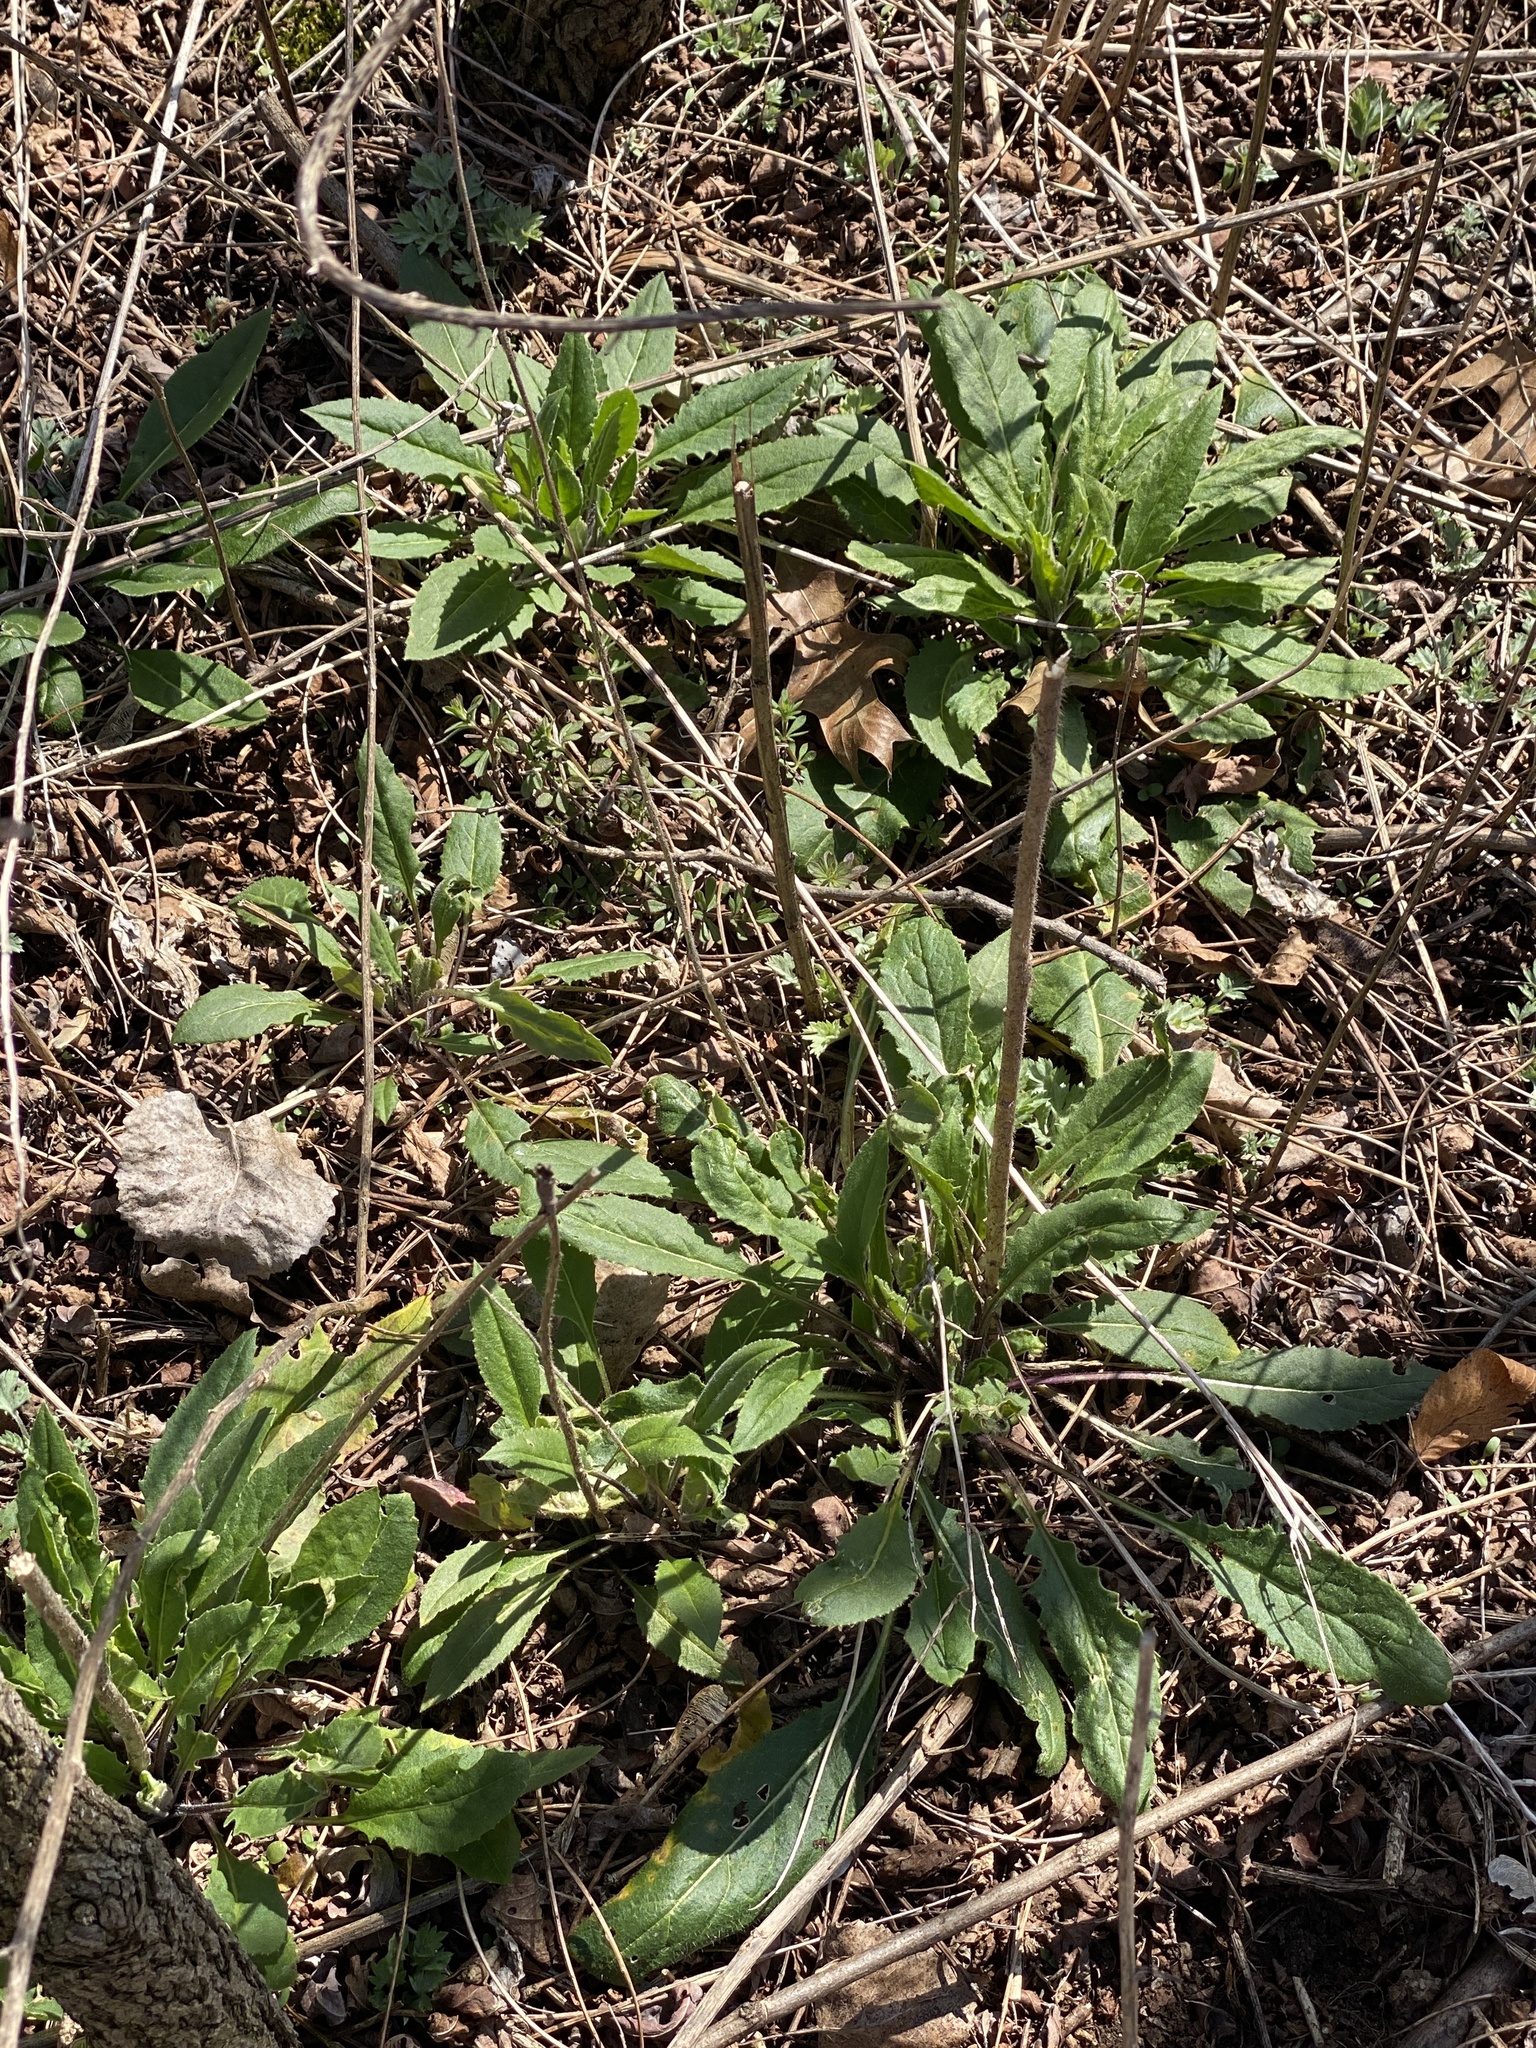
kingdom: Plantae
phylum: Tracheophyta
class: Magnoliopsida
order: Brassicales
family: Brassicaceae
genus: Hesperis
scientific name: Hesperis matronalis
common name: Dame's-violet
